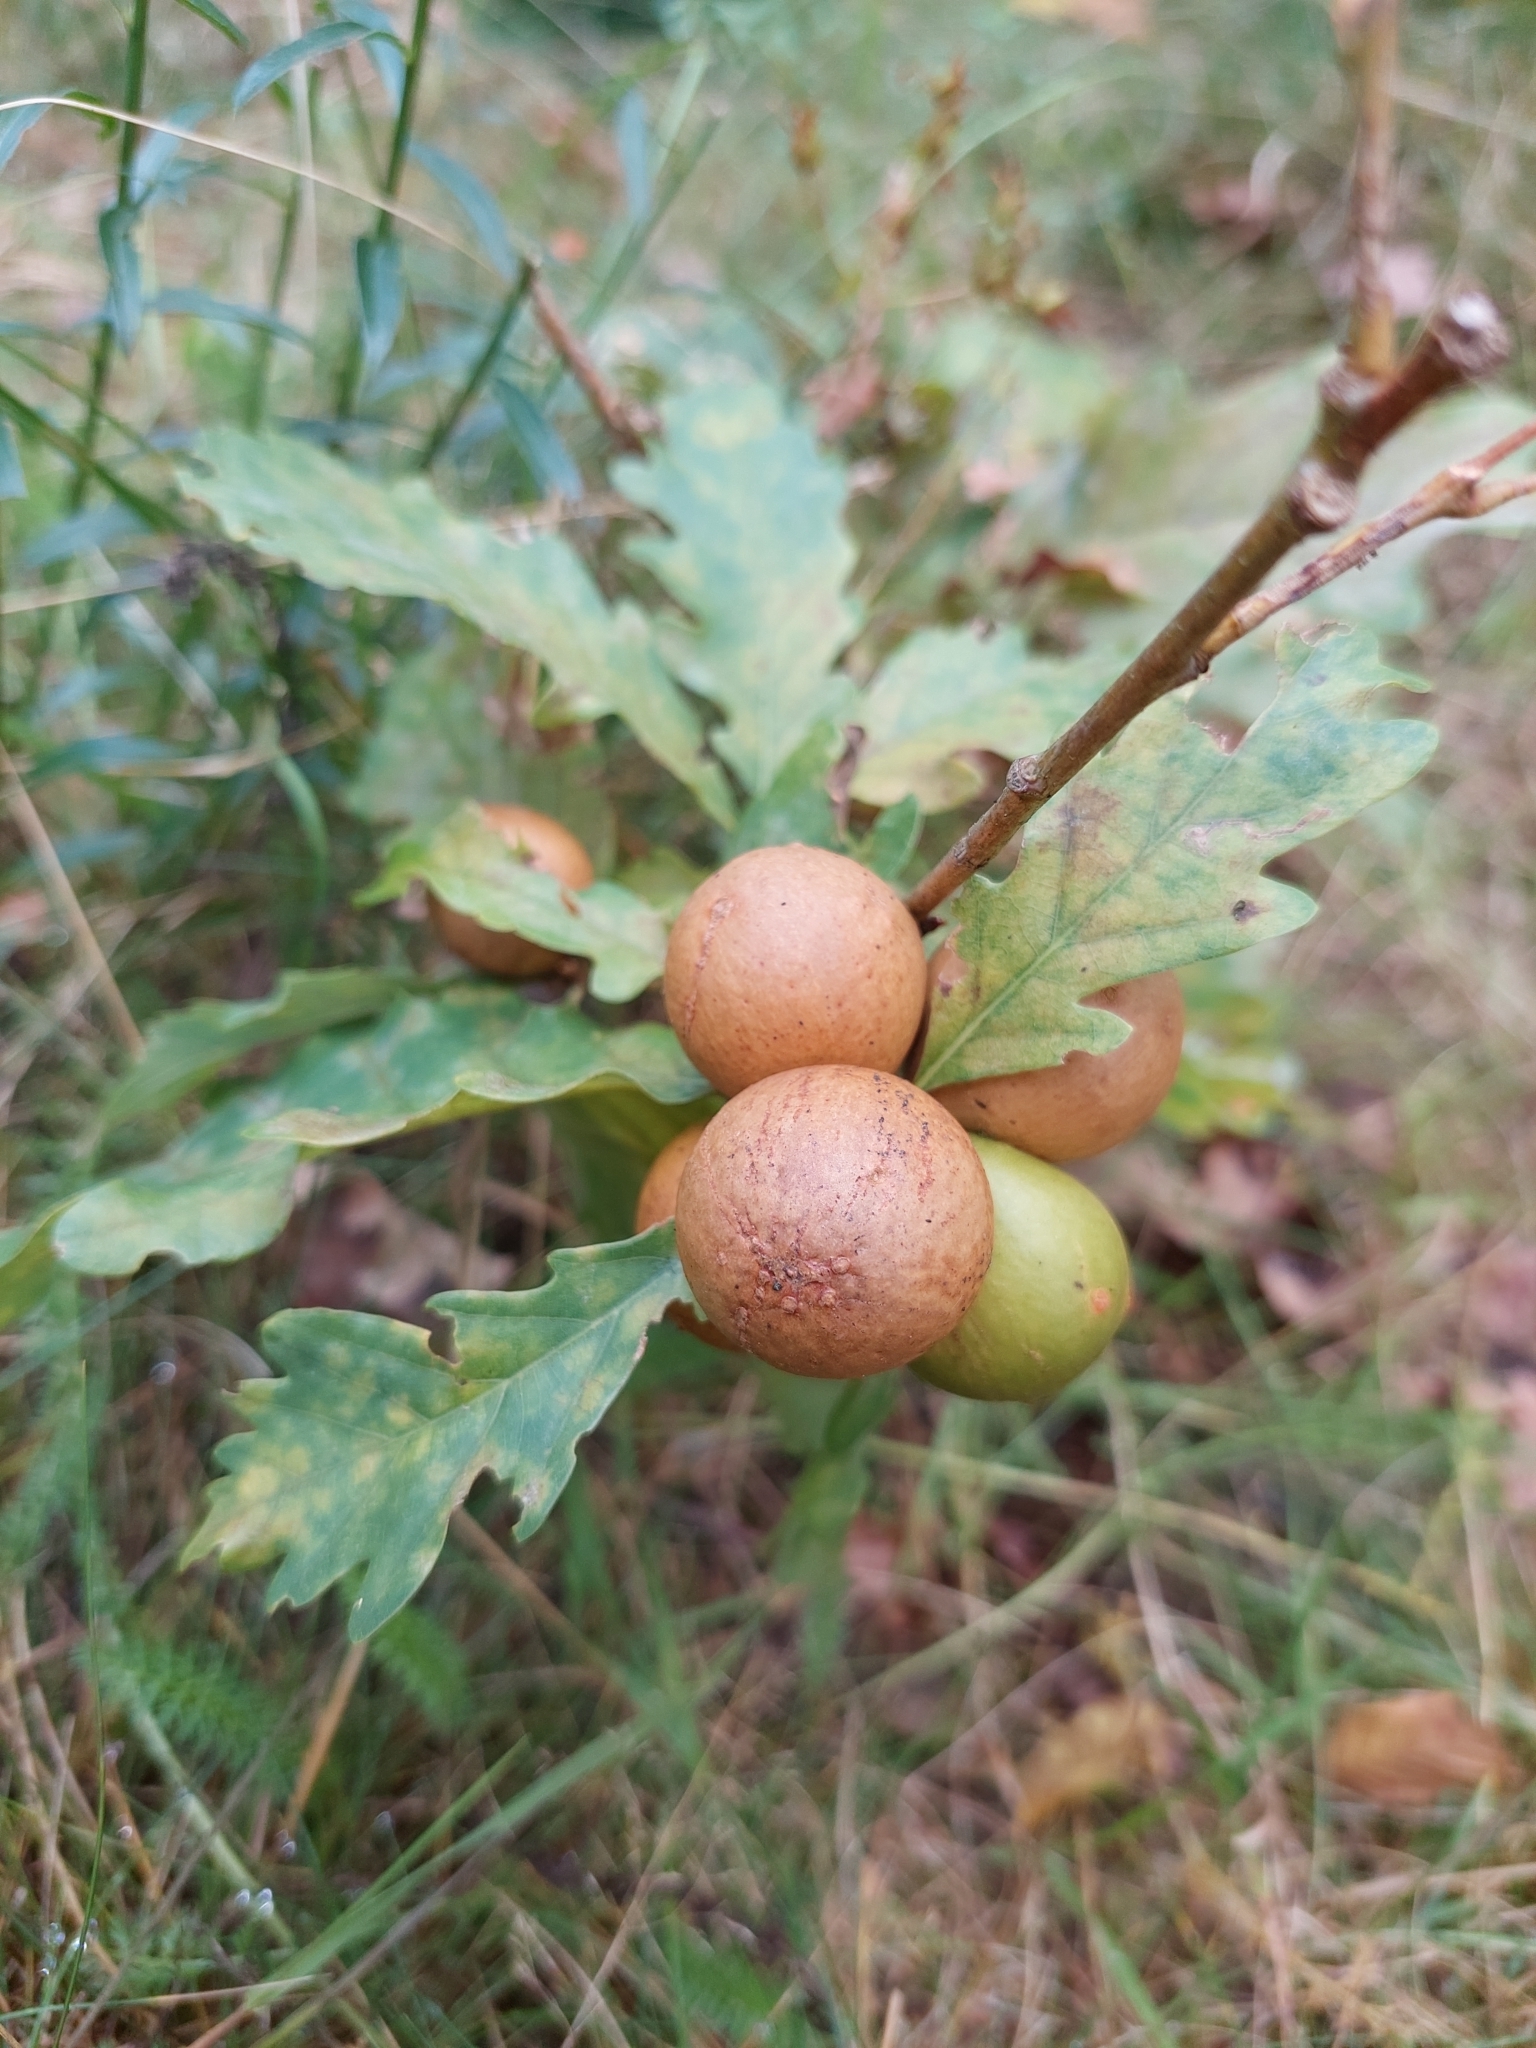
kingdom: Animalia
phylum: Arthropoda
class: Insecta
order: Hymenoptera
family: Cynipidae
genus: Andricus
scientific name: Andricus kollari
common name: Marble gall
